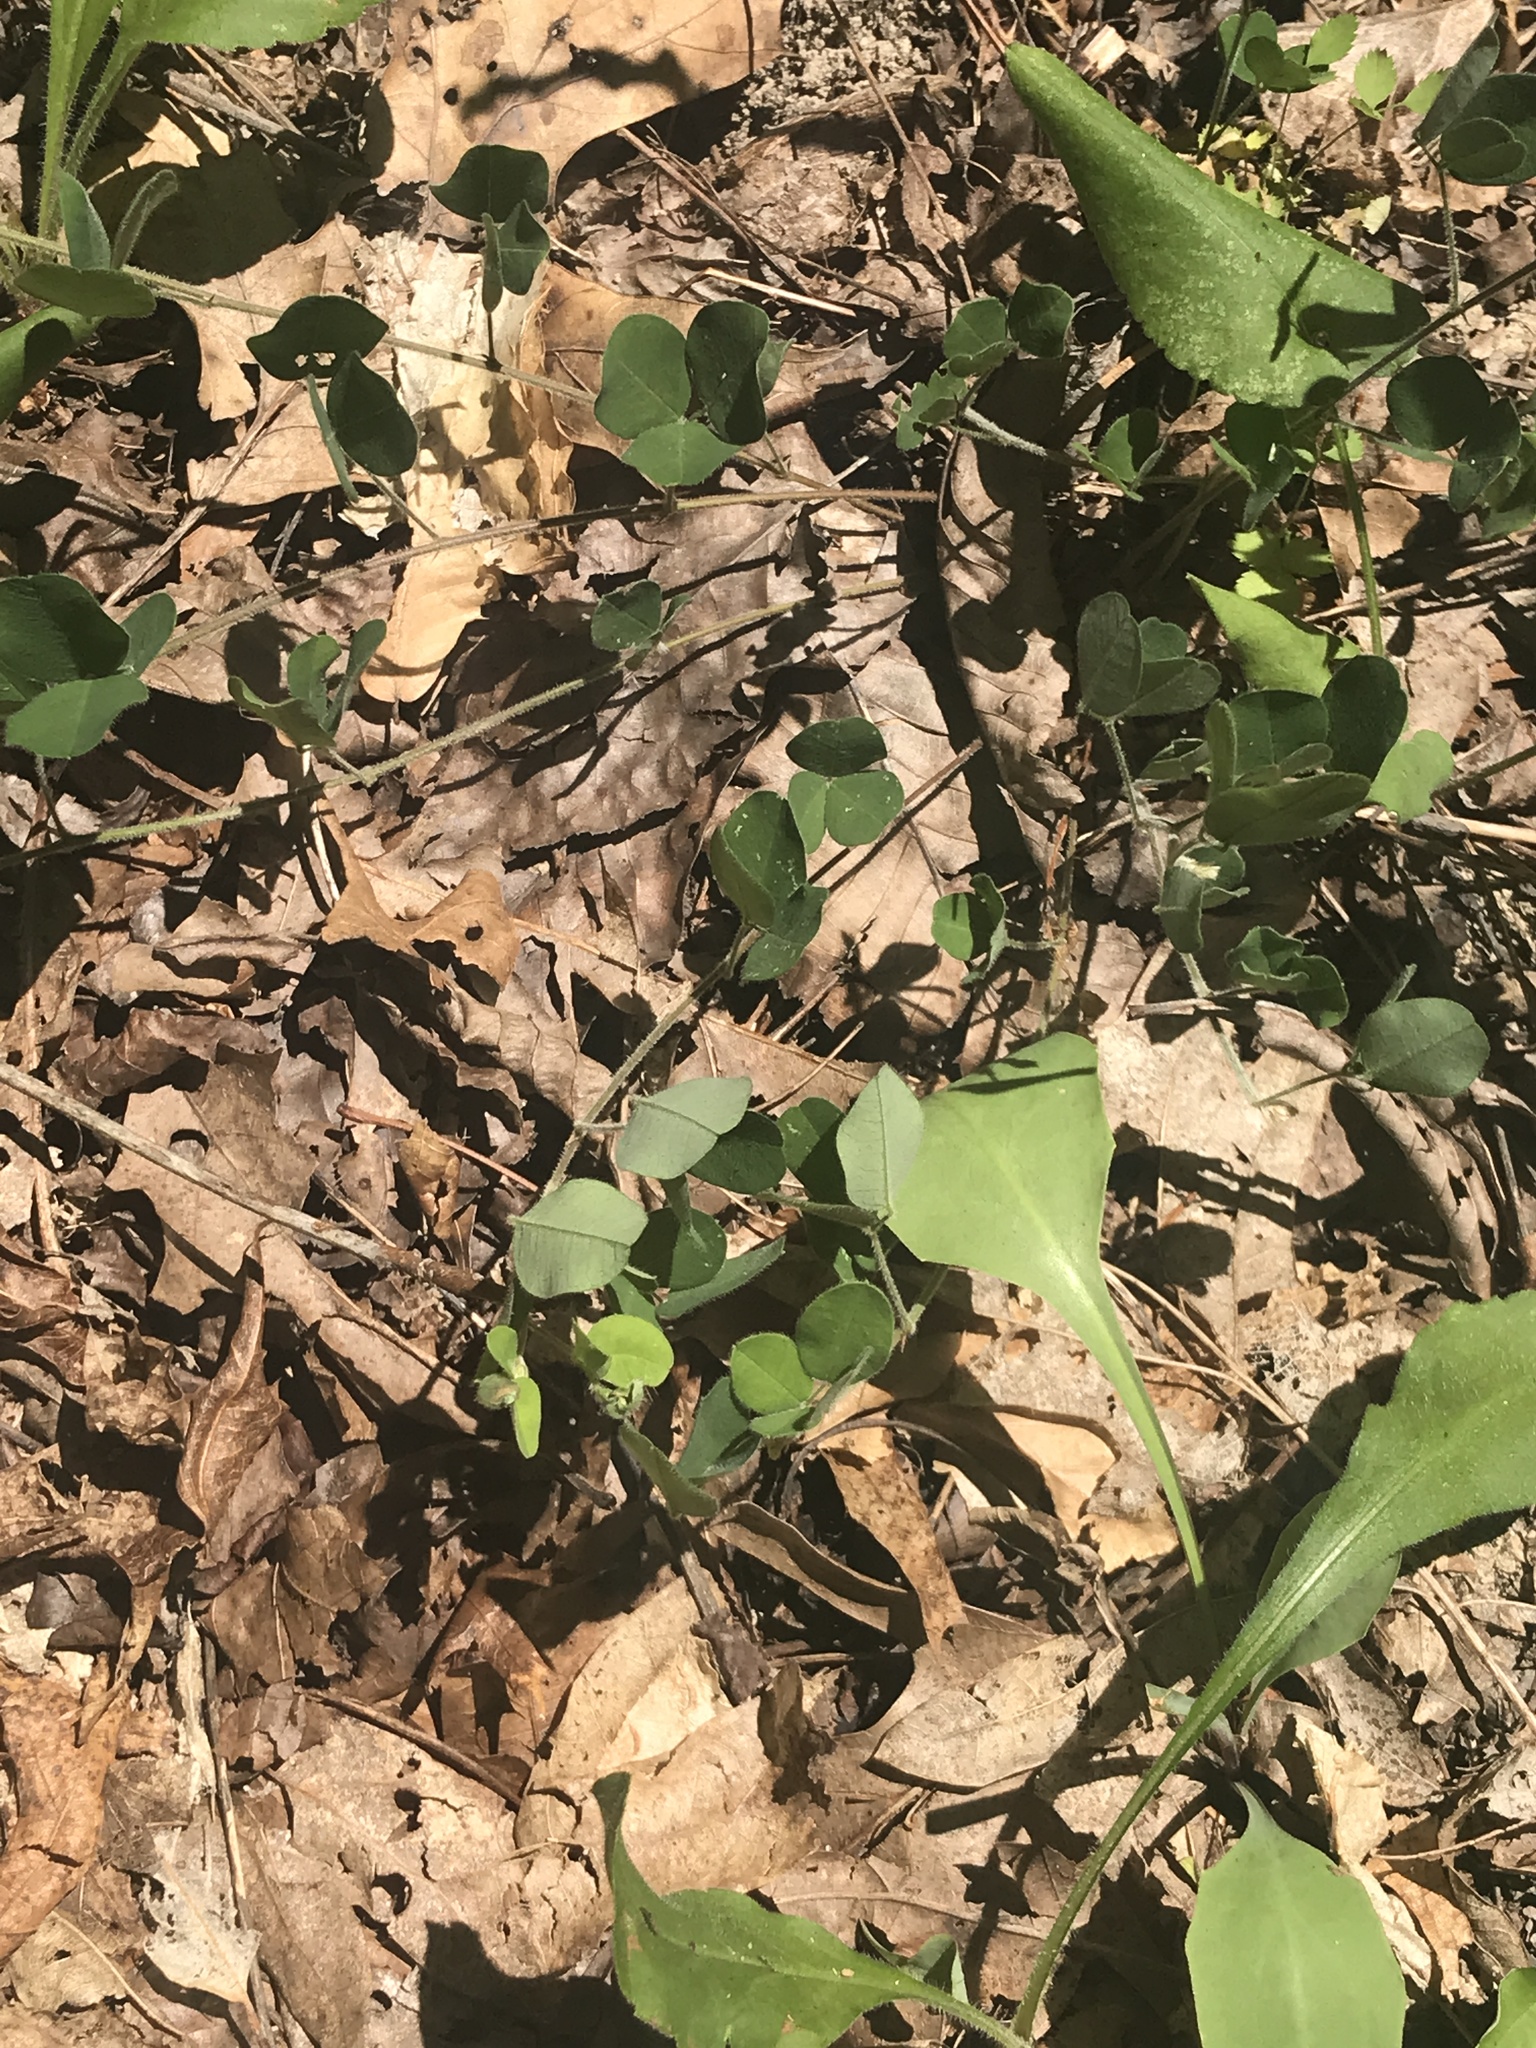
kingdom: Plantae
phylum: Tracheophyta
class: Magnoliopsida
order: Fabales
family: Fabaceae
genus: Lespedeza
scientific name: Lespedeza procumbens
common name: Downy trailing bush-clover
